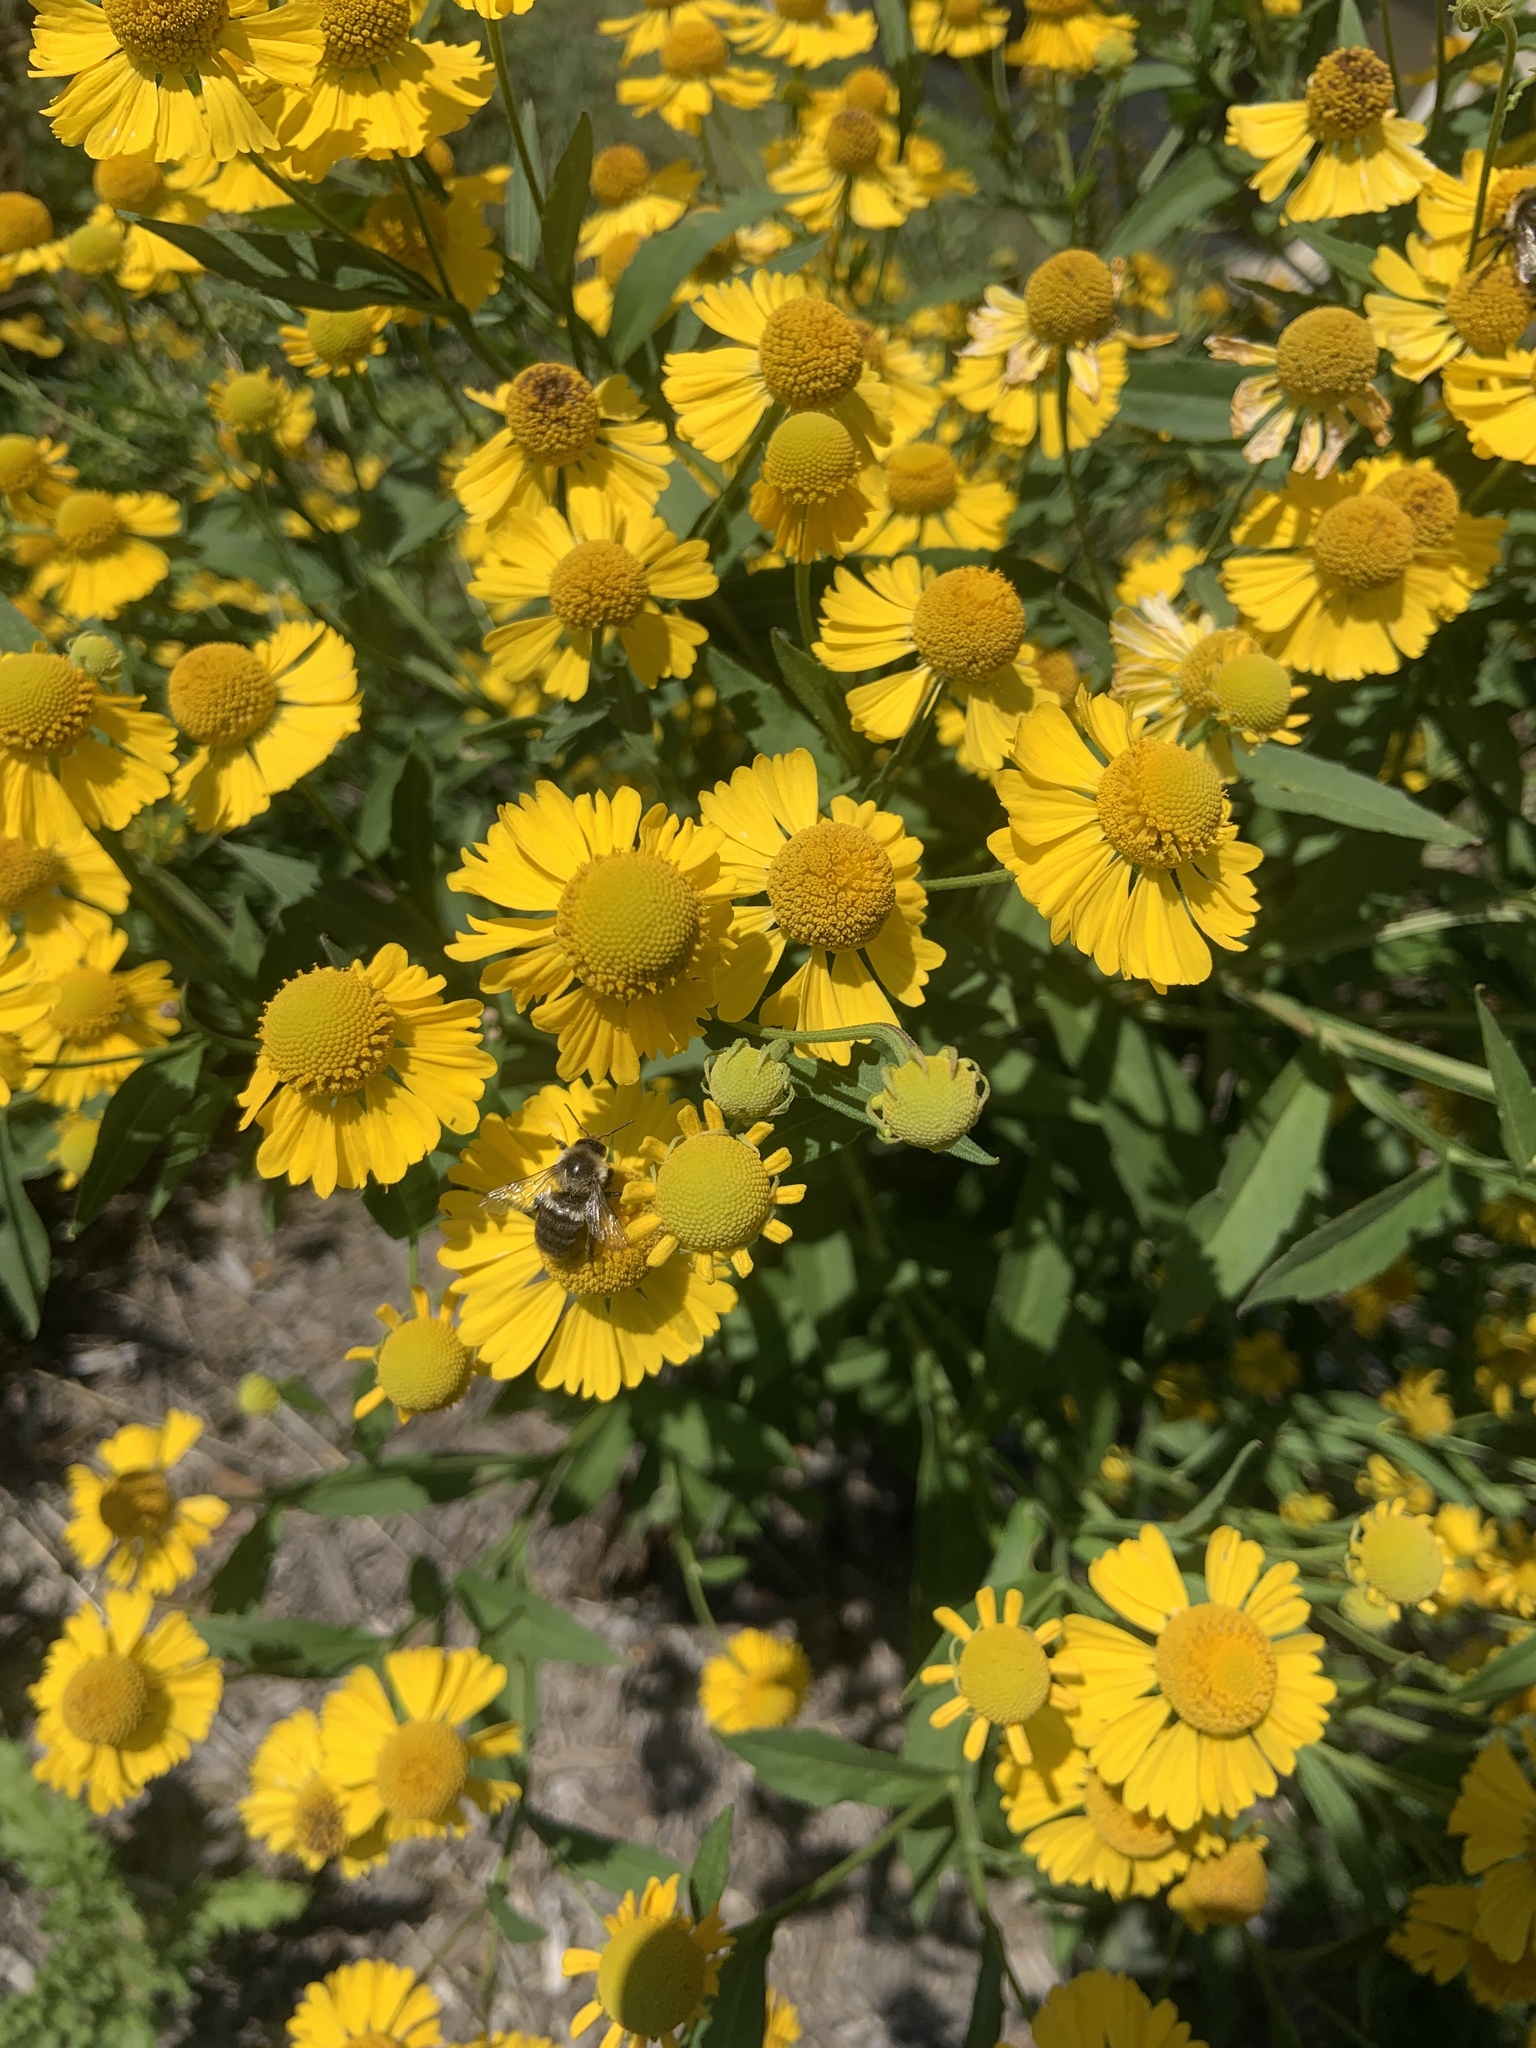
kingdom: Animalia
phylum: Arthropoda
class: Insecta
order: Hymenoptera
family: Apidae
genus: Bombus
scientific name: Bombus impatiens
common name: Common eastern bumble bee
